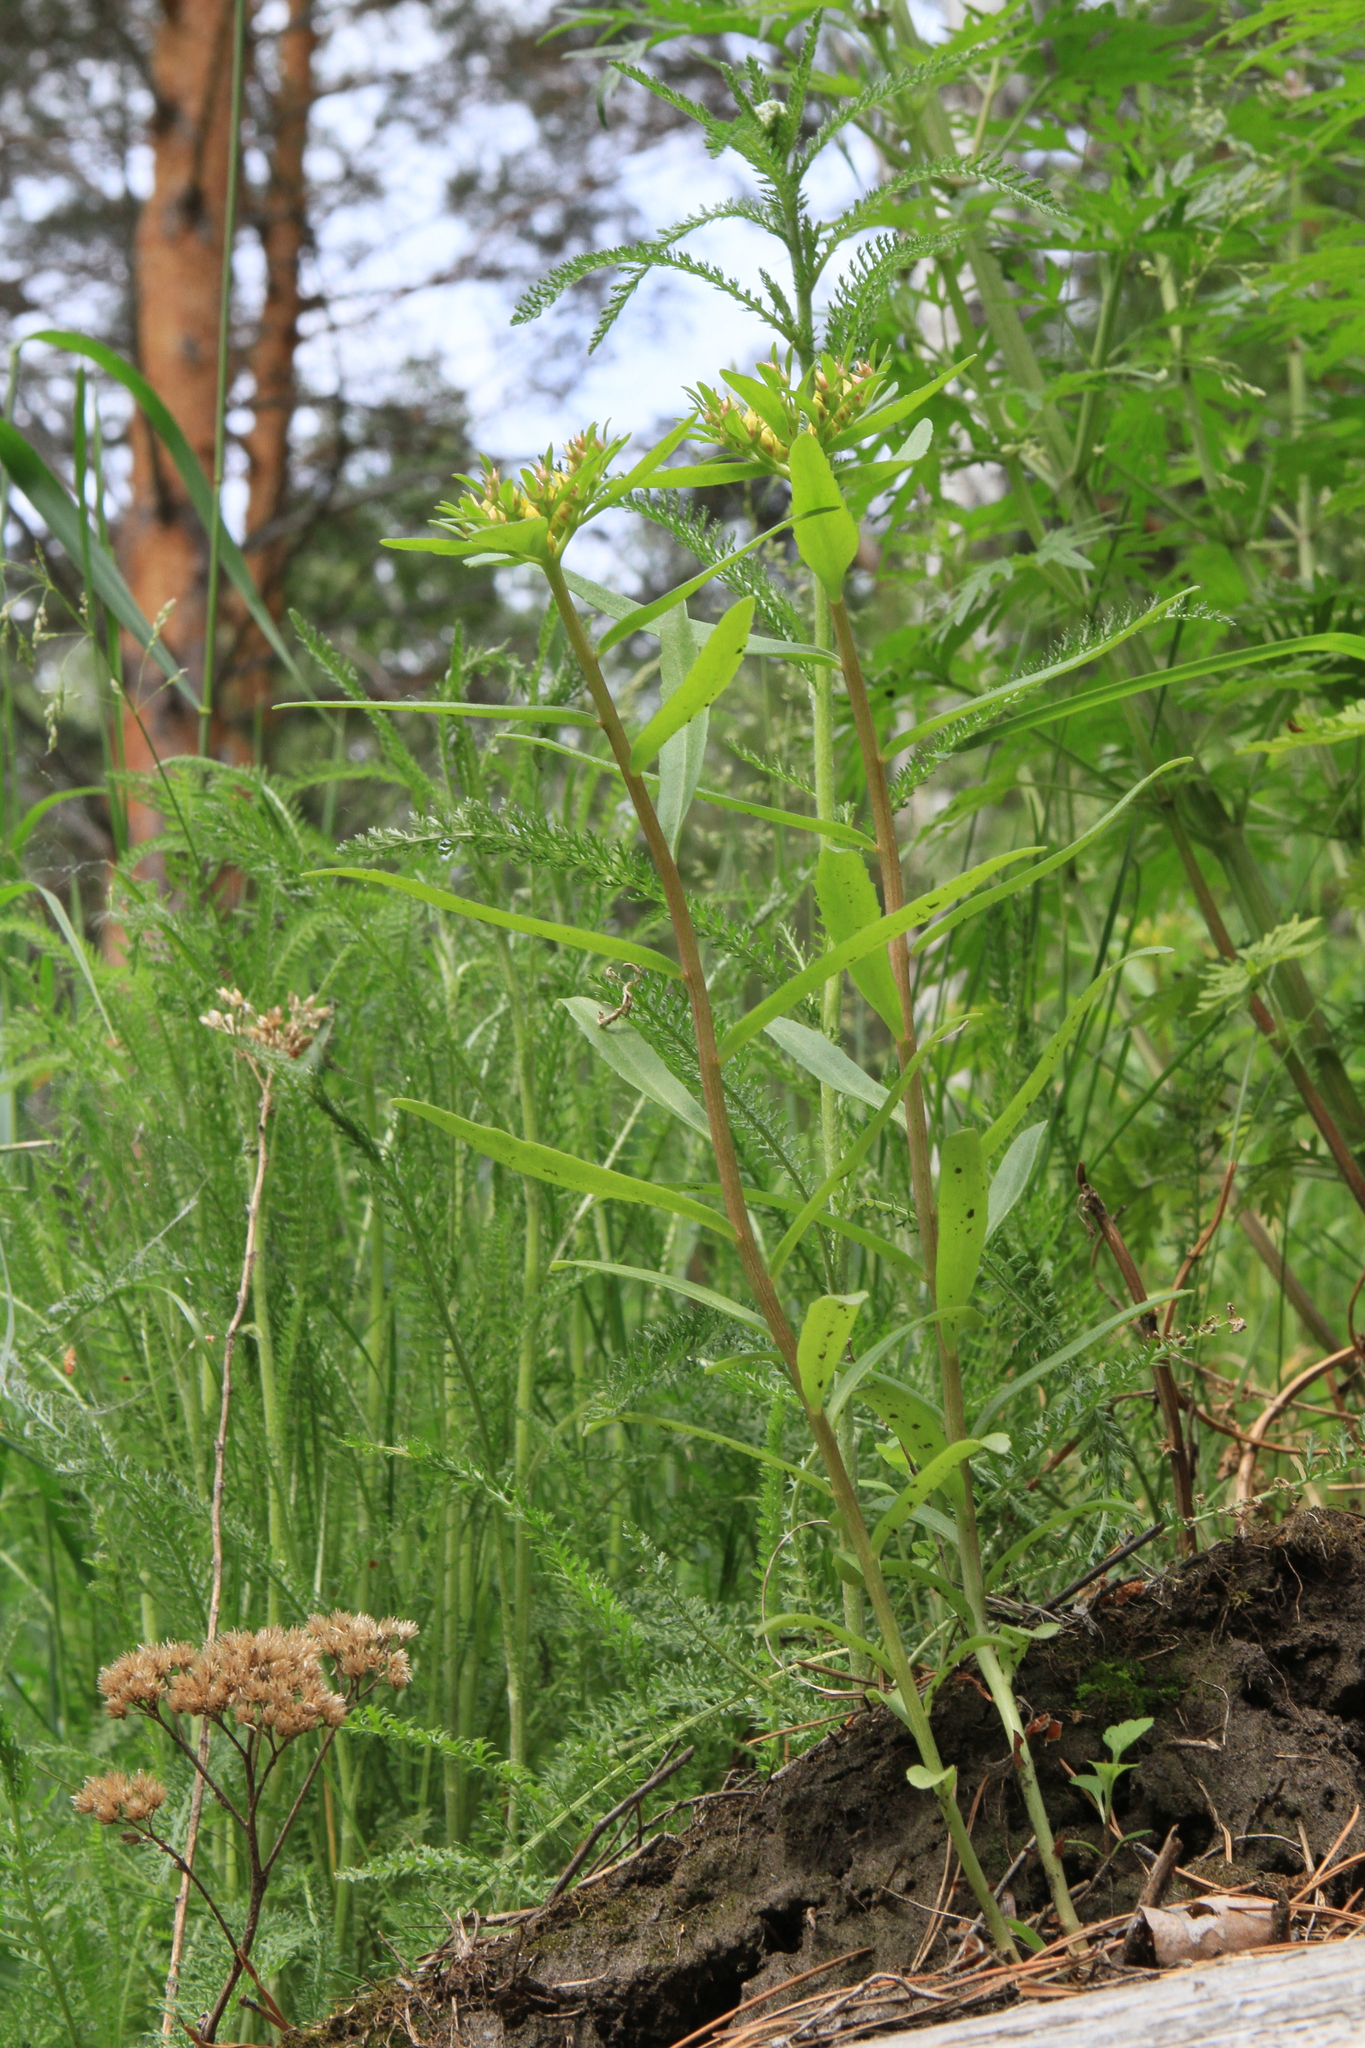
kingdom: Plantae
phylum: Tracheophyta
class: Magnoliopsida
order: Saxifragales
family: Crassulaceae
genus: Phedimus
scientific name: Phedimus aizoon
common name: Orpin aizoon
